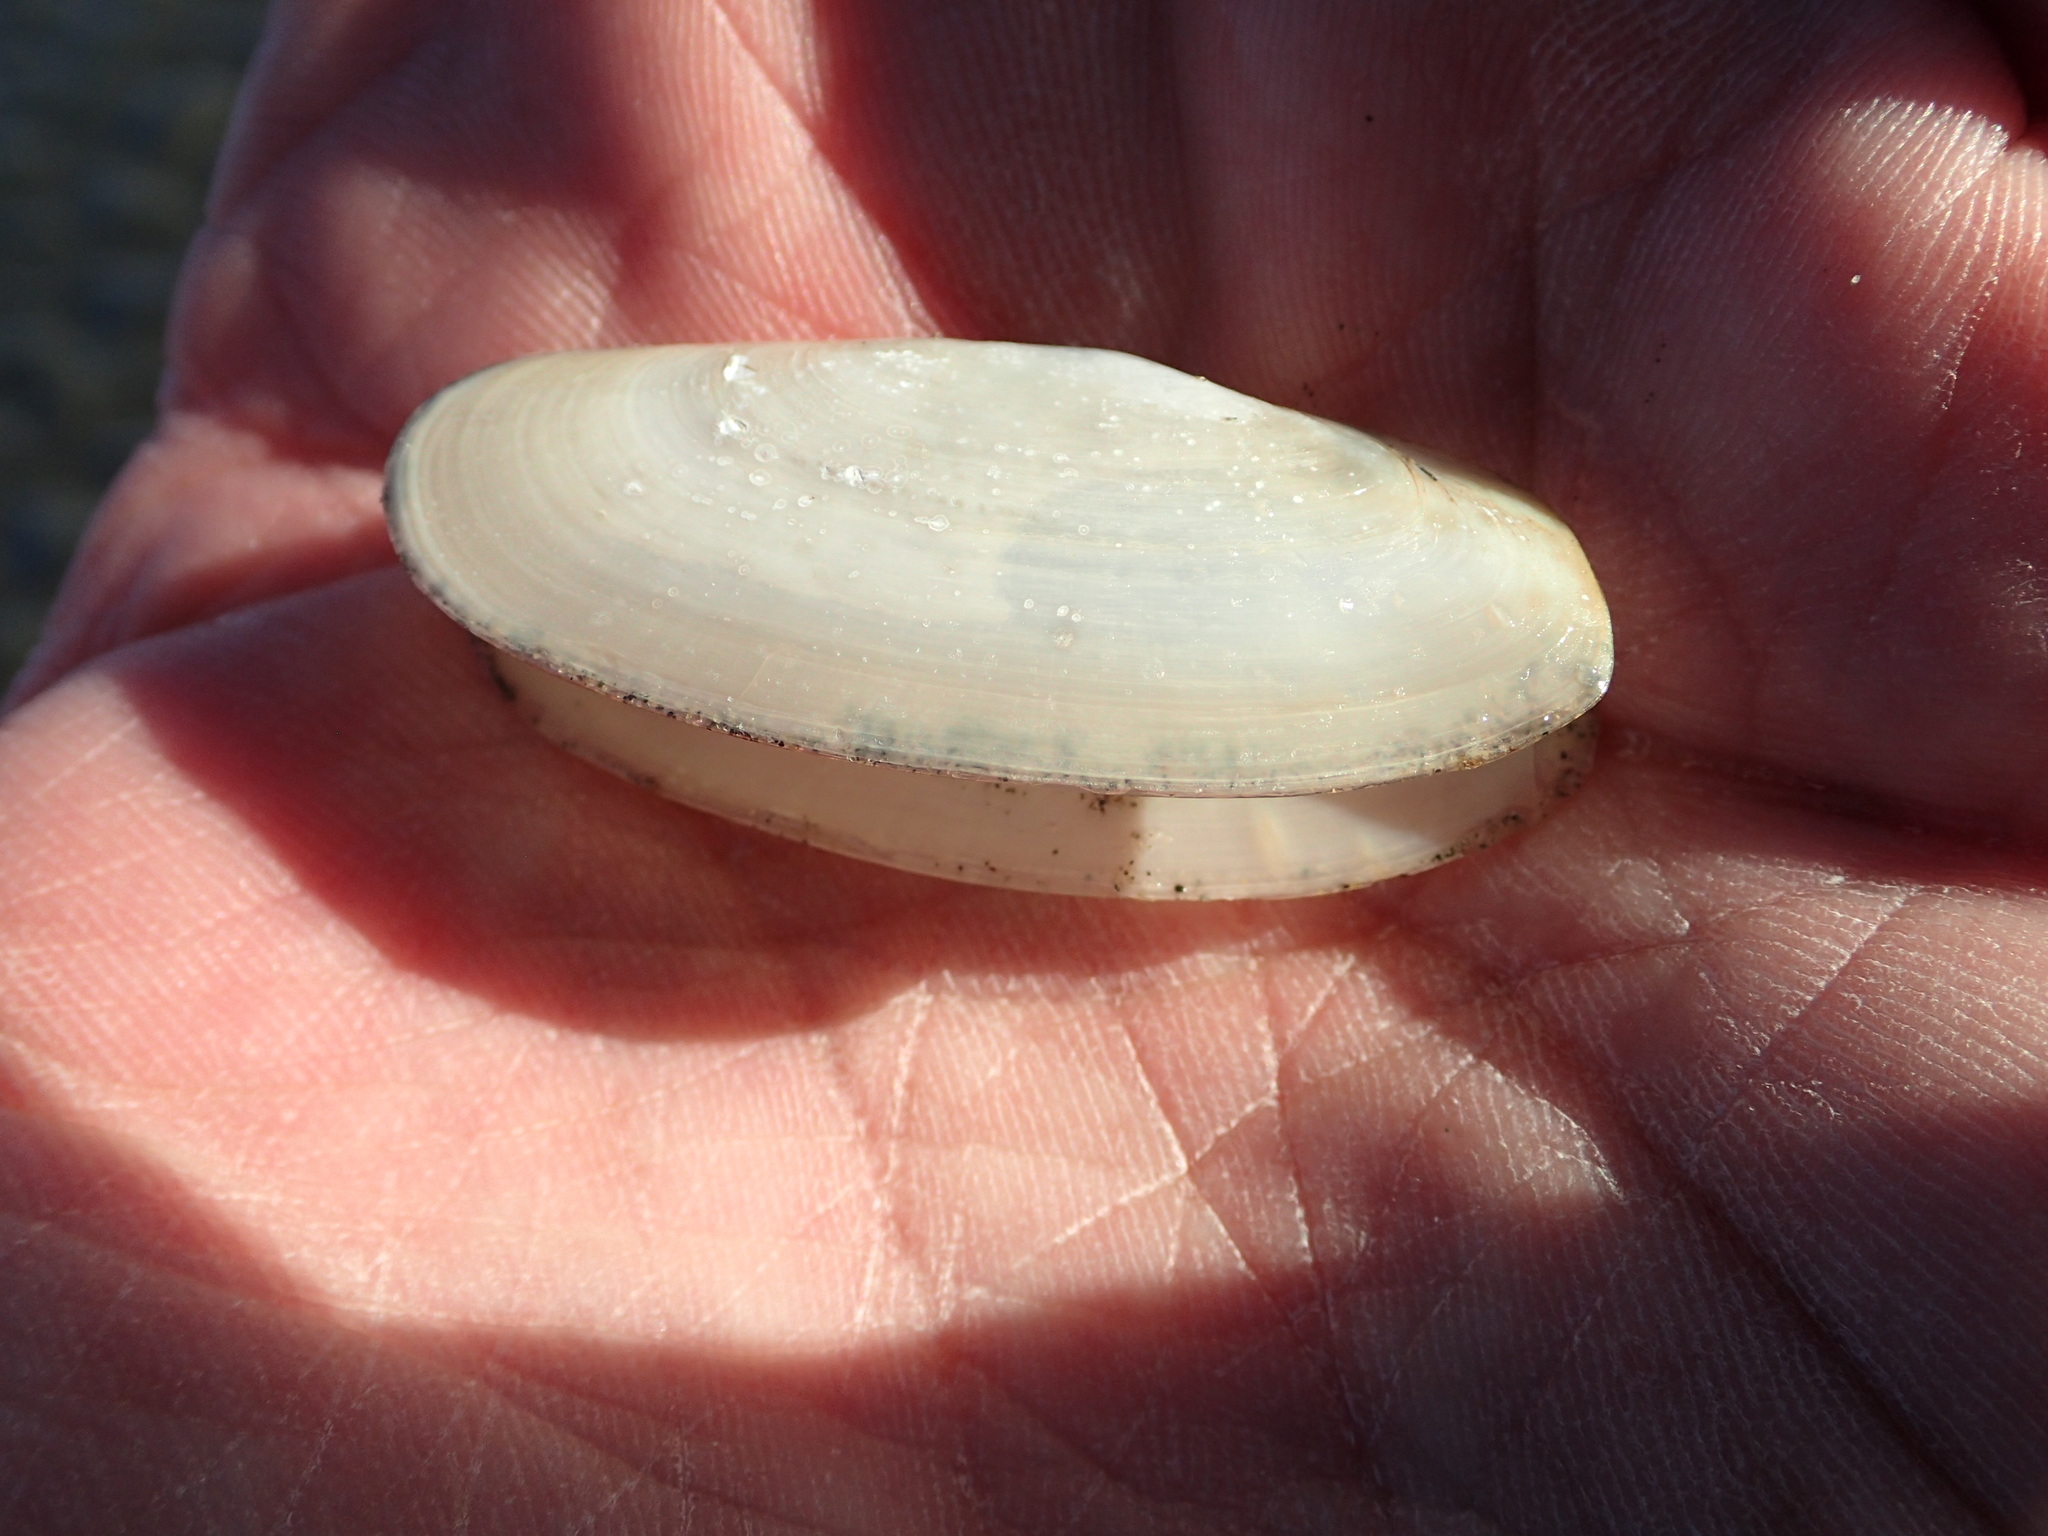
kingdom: Animalia
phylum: Mollusca
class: Bivalvia
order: Venerida
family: Mactridae
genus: Darina
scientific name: Darina solenoides
